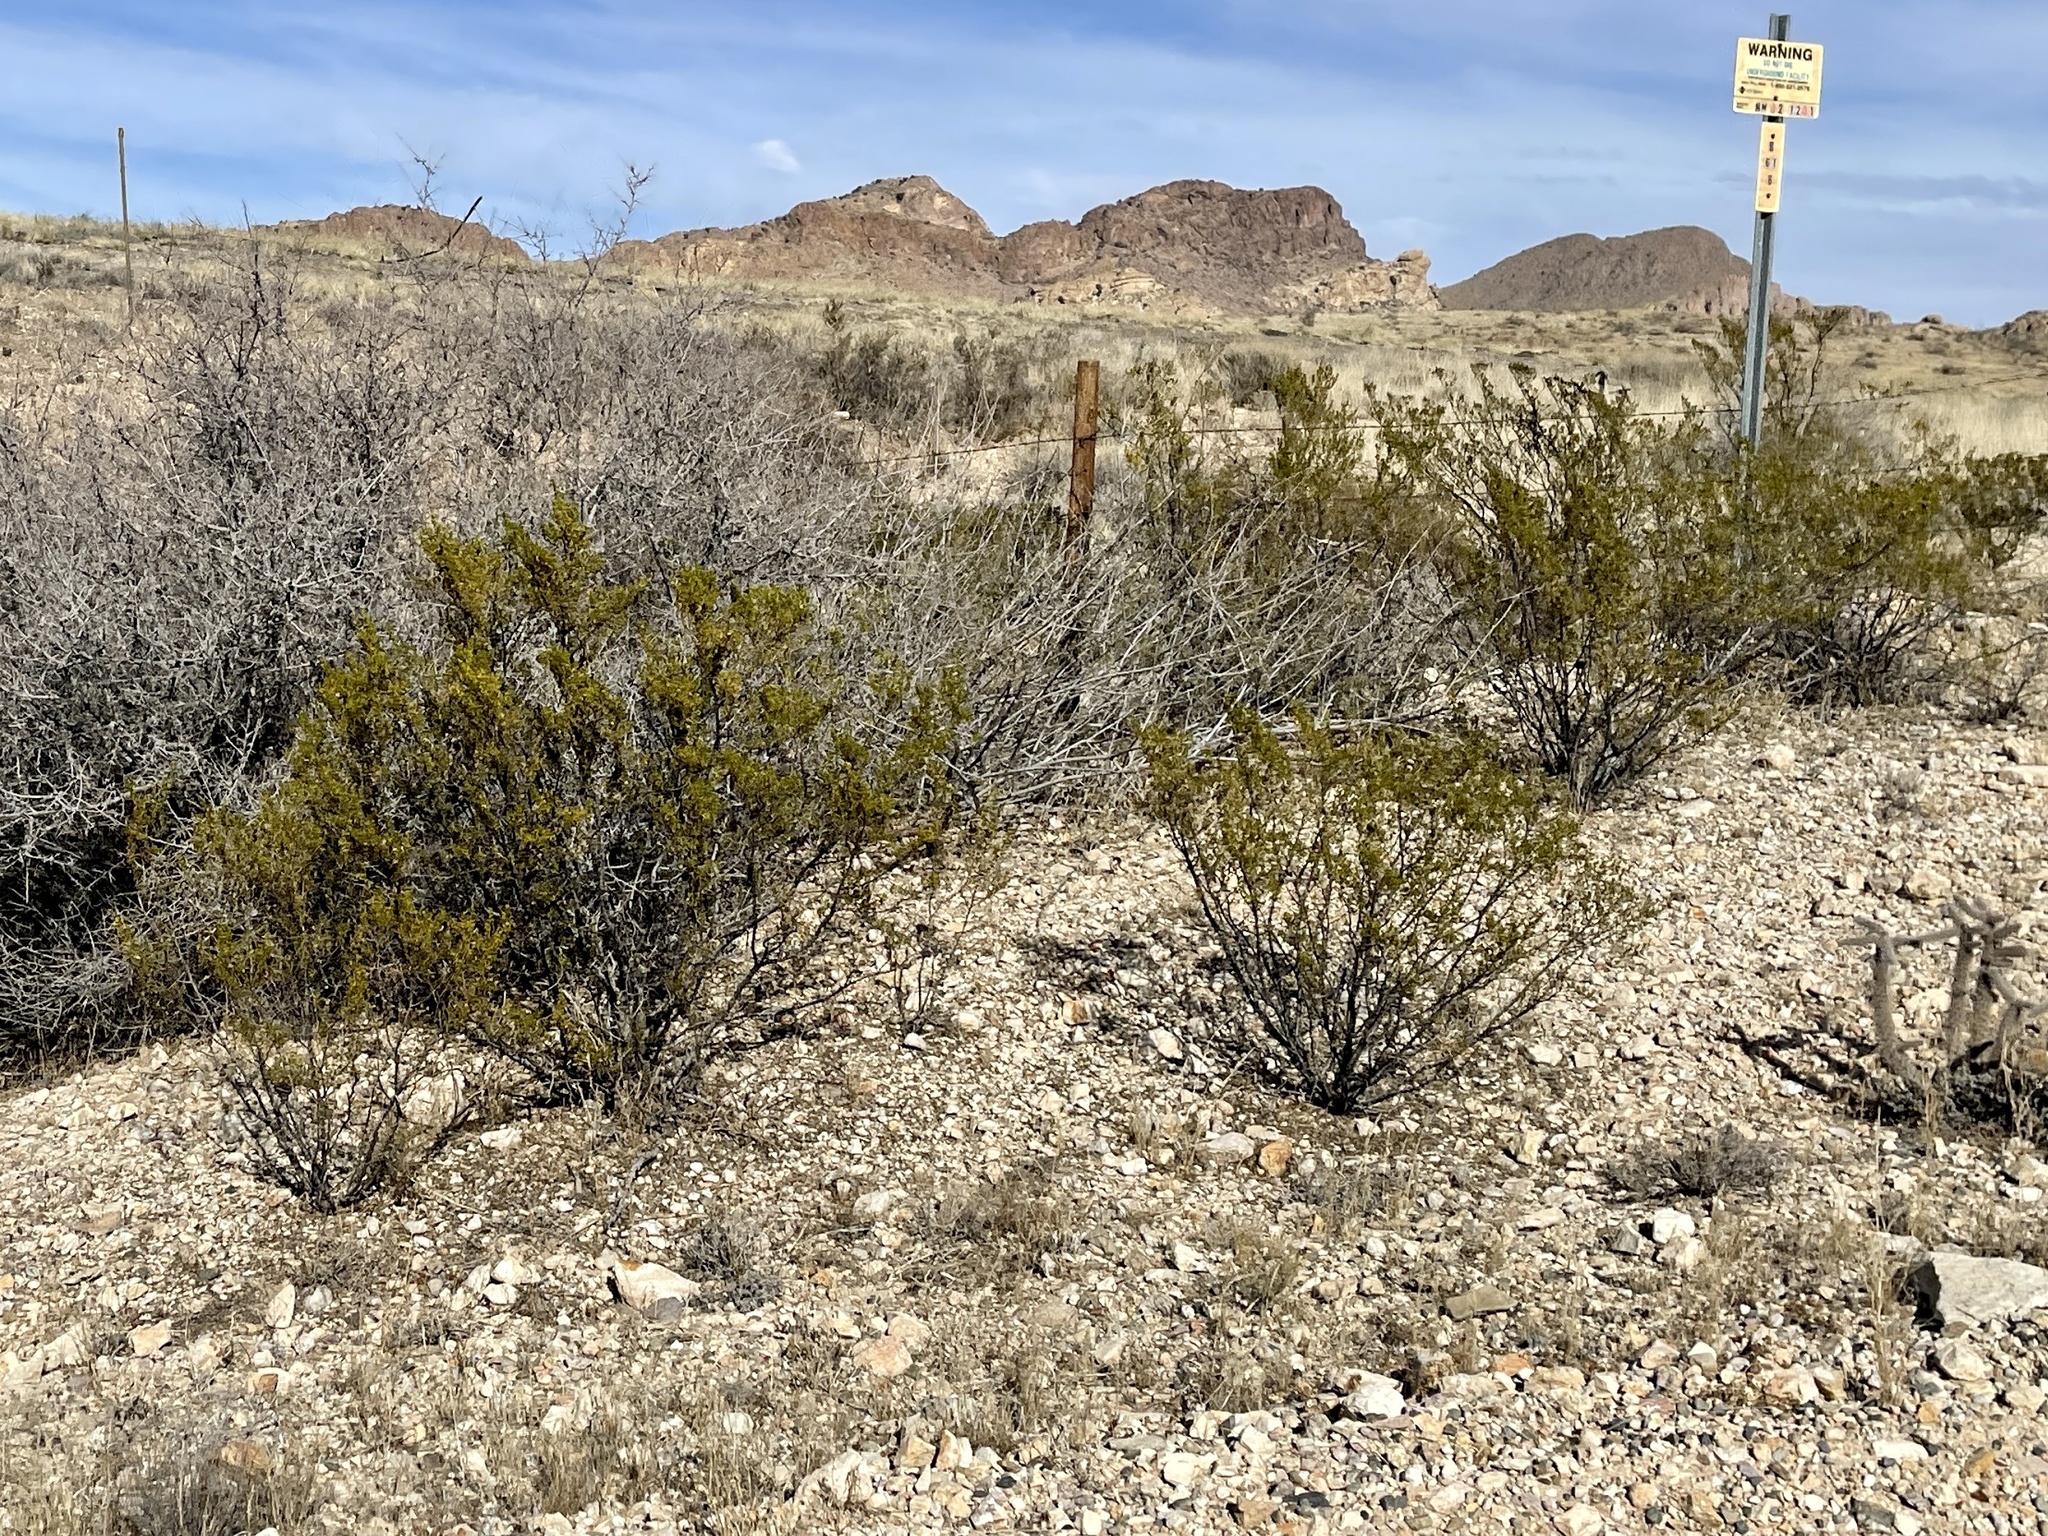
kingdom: Plantae
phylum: Tracheophyta
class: Magnoliopsida
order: Zygophyllales
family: Zygophyllaceae
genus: Larrea
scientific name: Larrea tridentata
